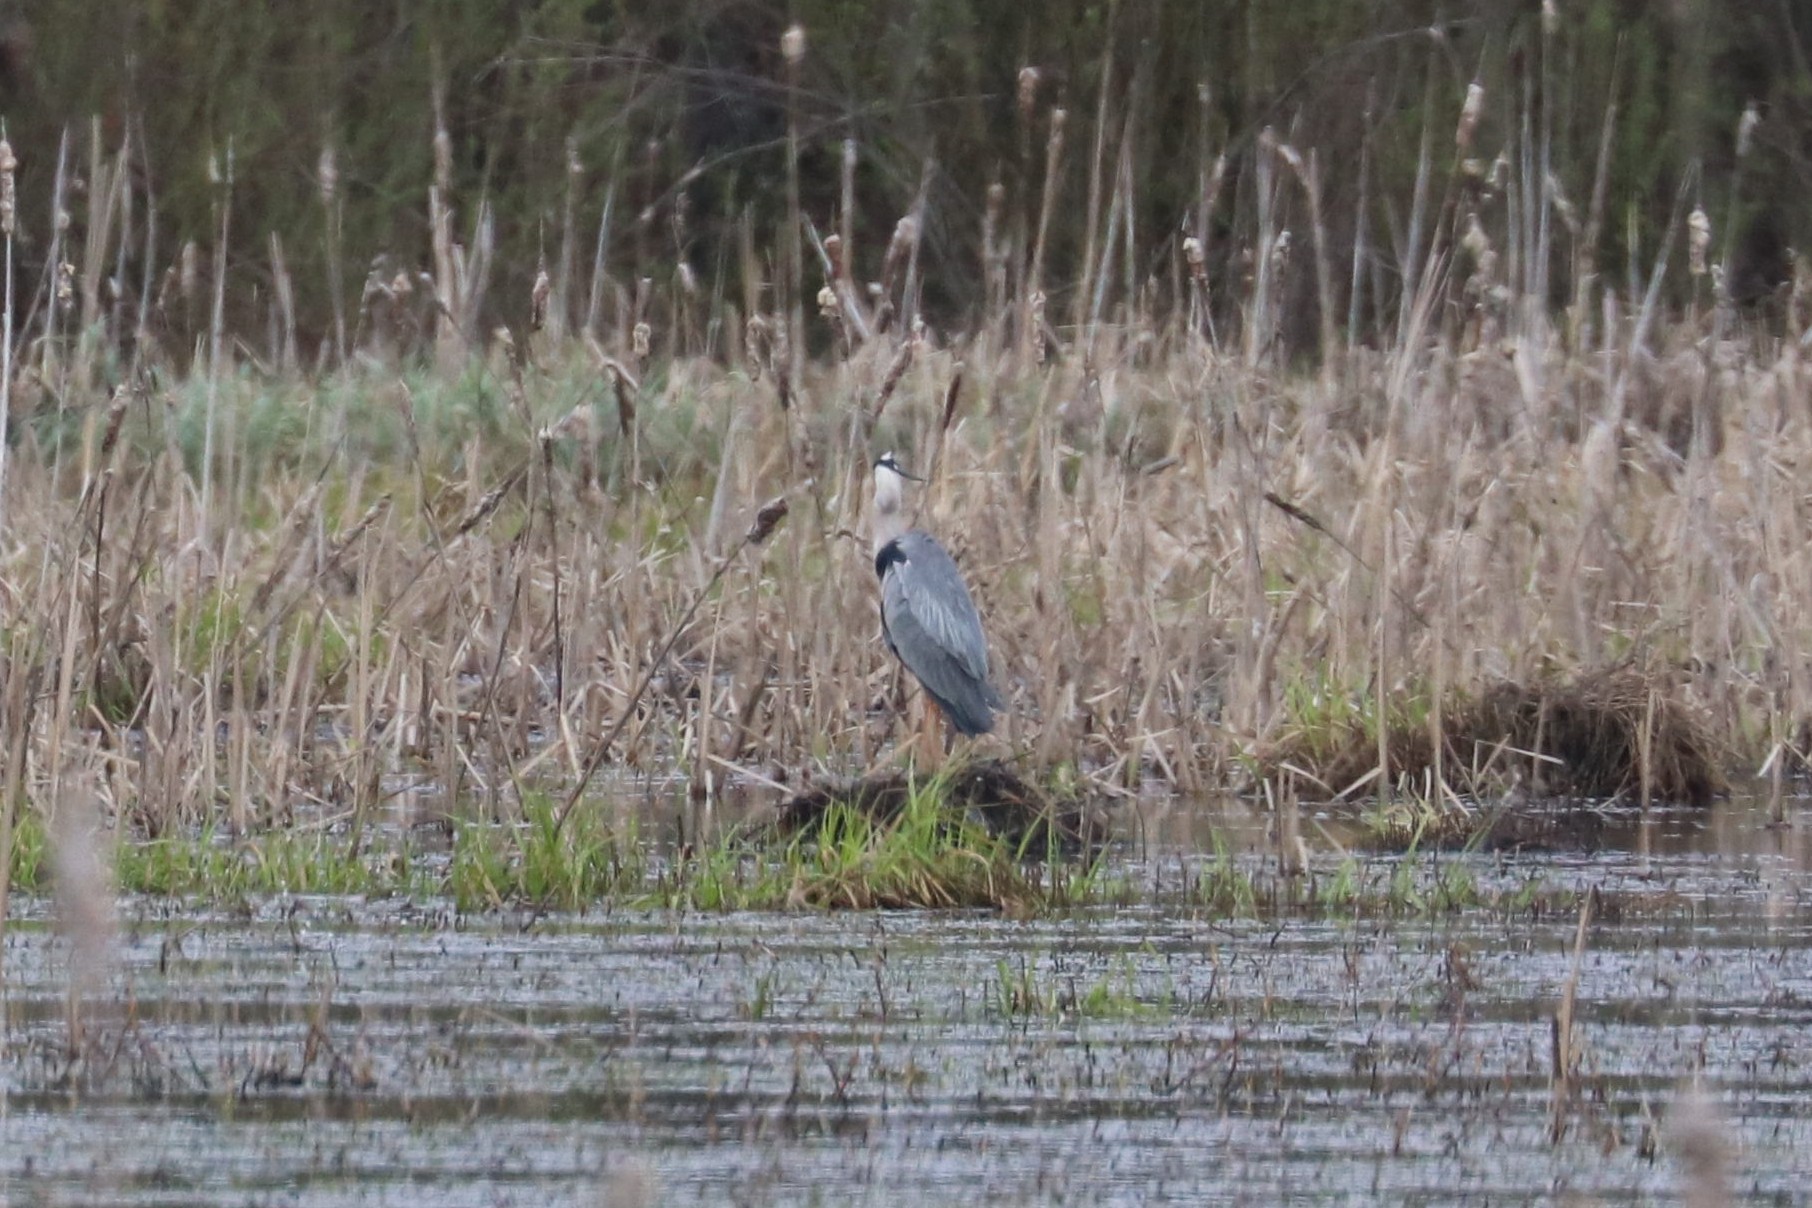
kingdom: Animalia
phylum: Chordata
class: Aves
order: Pelecaniformes
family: Ardeidae
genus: Ardea
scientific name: Ardea cinerea
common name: Grey heron
